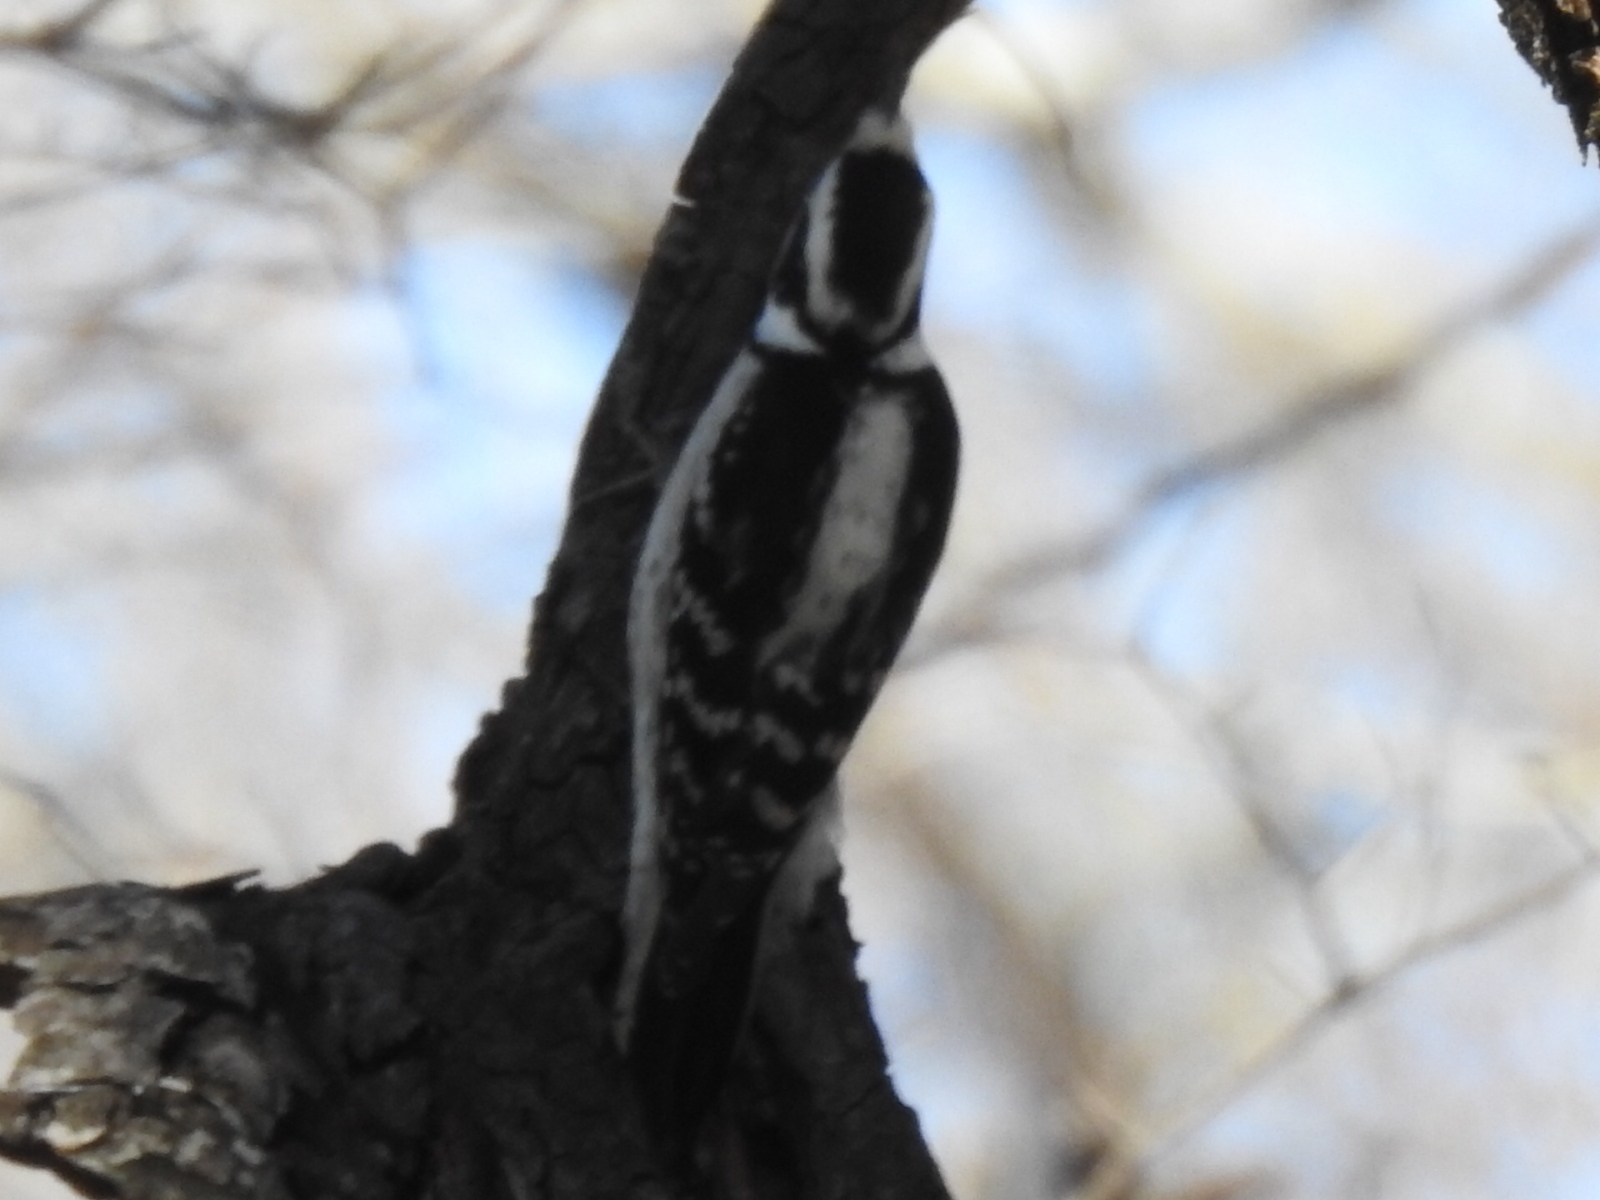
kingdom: Animalia
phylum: Chordata
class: Aves
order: Piciformes
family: Picidae
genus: Dryobates
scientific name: Dryobates pubescens
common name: Downy woodpecker
